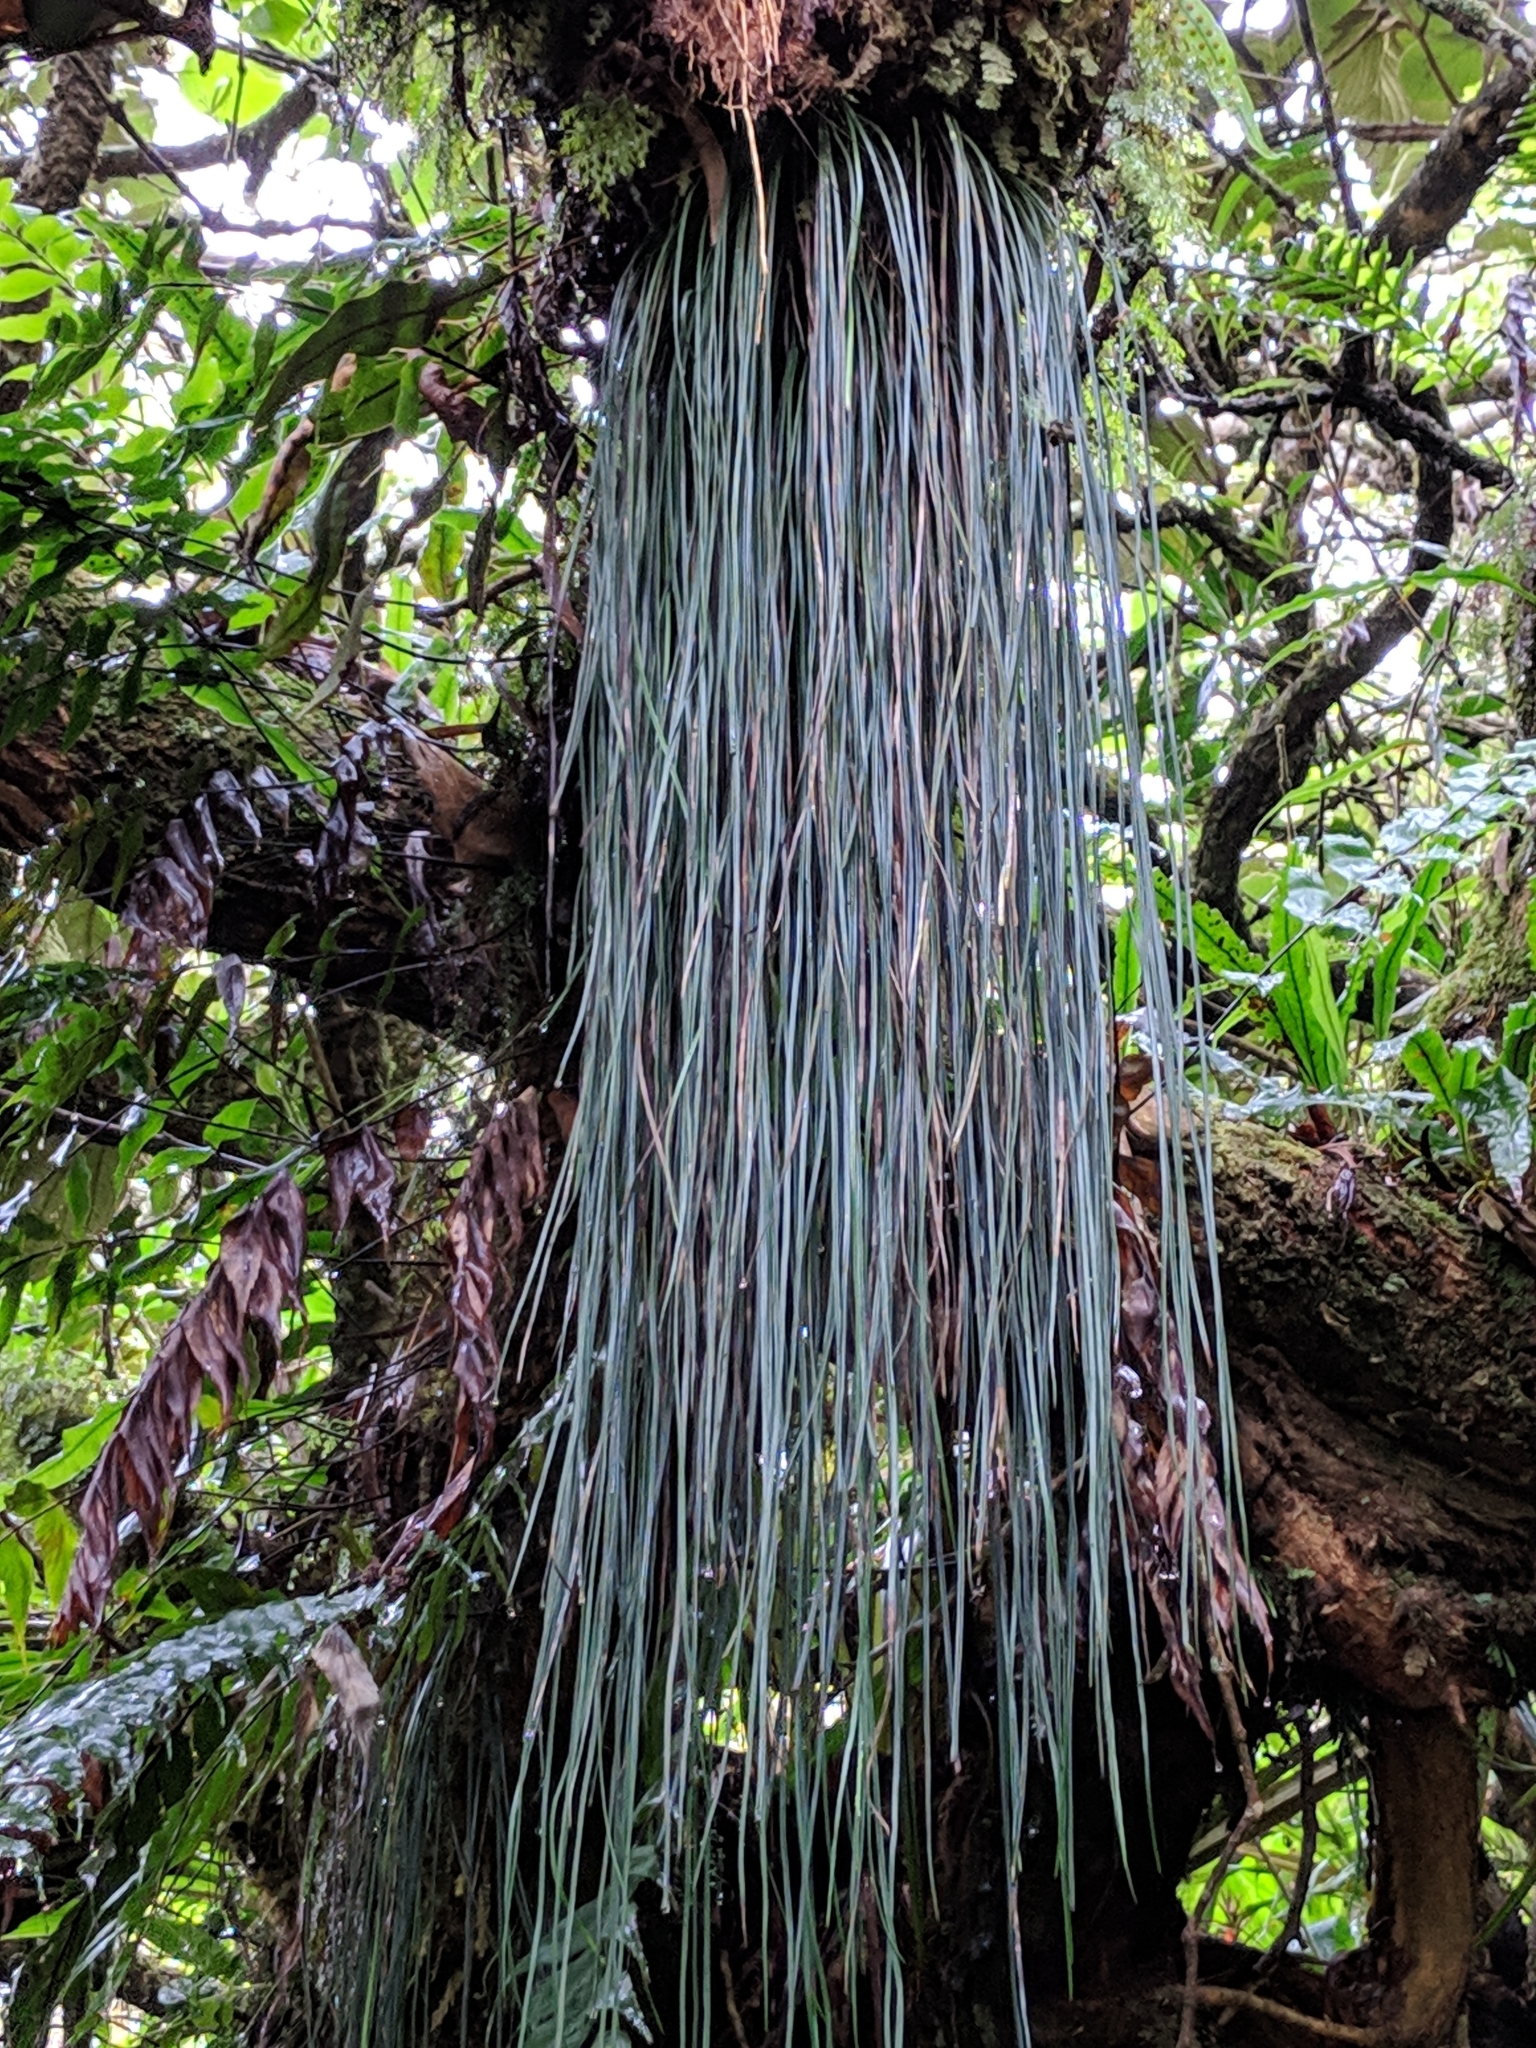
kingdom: Plantae
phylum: Tracheophyta
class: Polypodiopsida
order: Polypodiales
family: Pteridaceae
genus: Vittaria
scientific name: Vittaria isoetifolia
